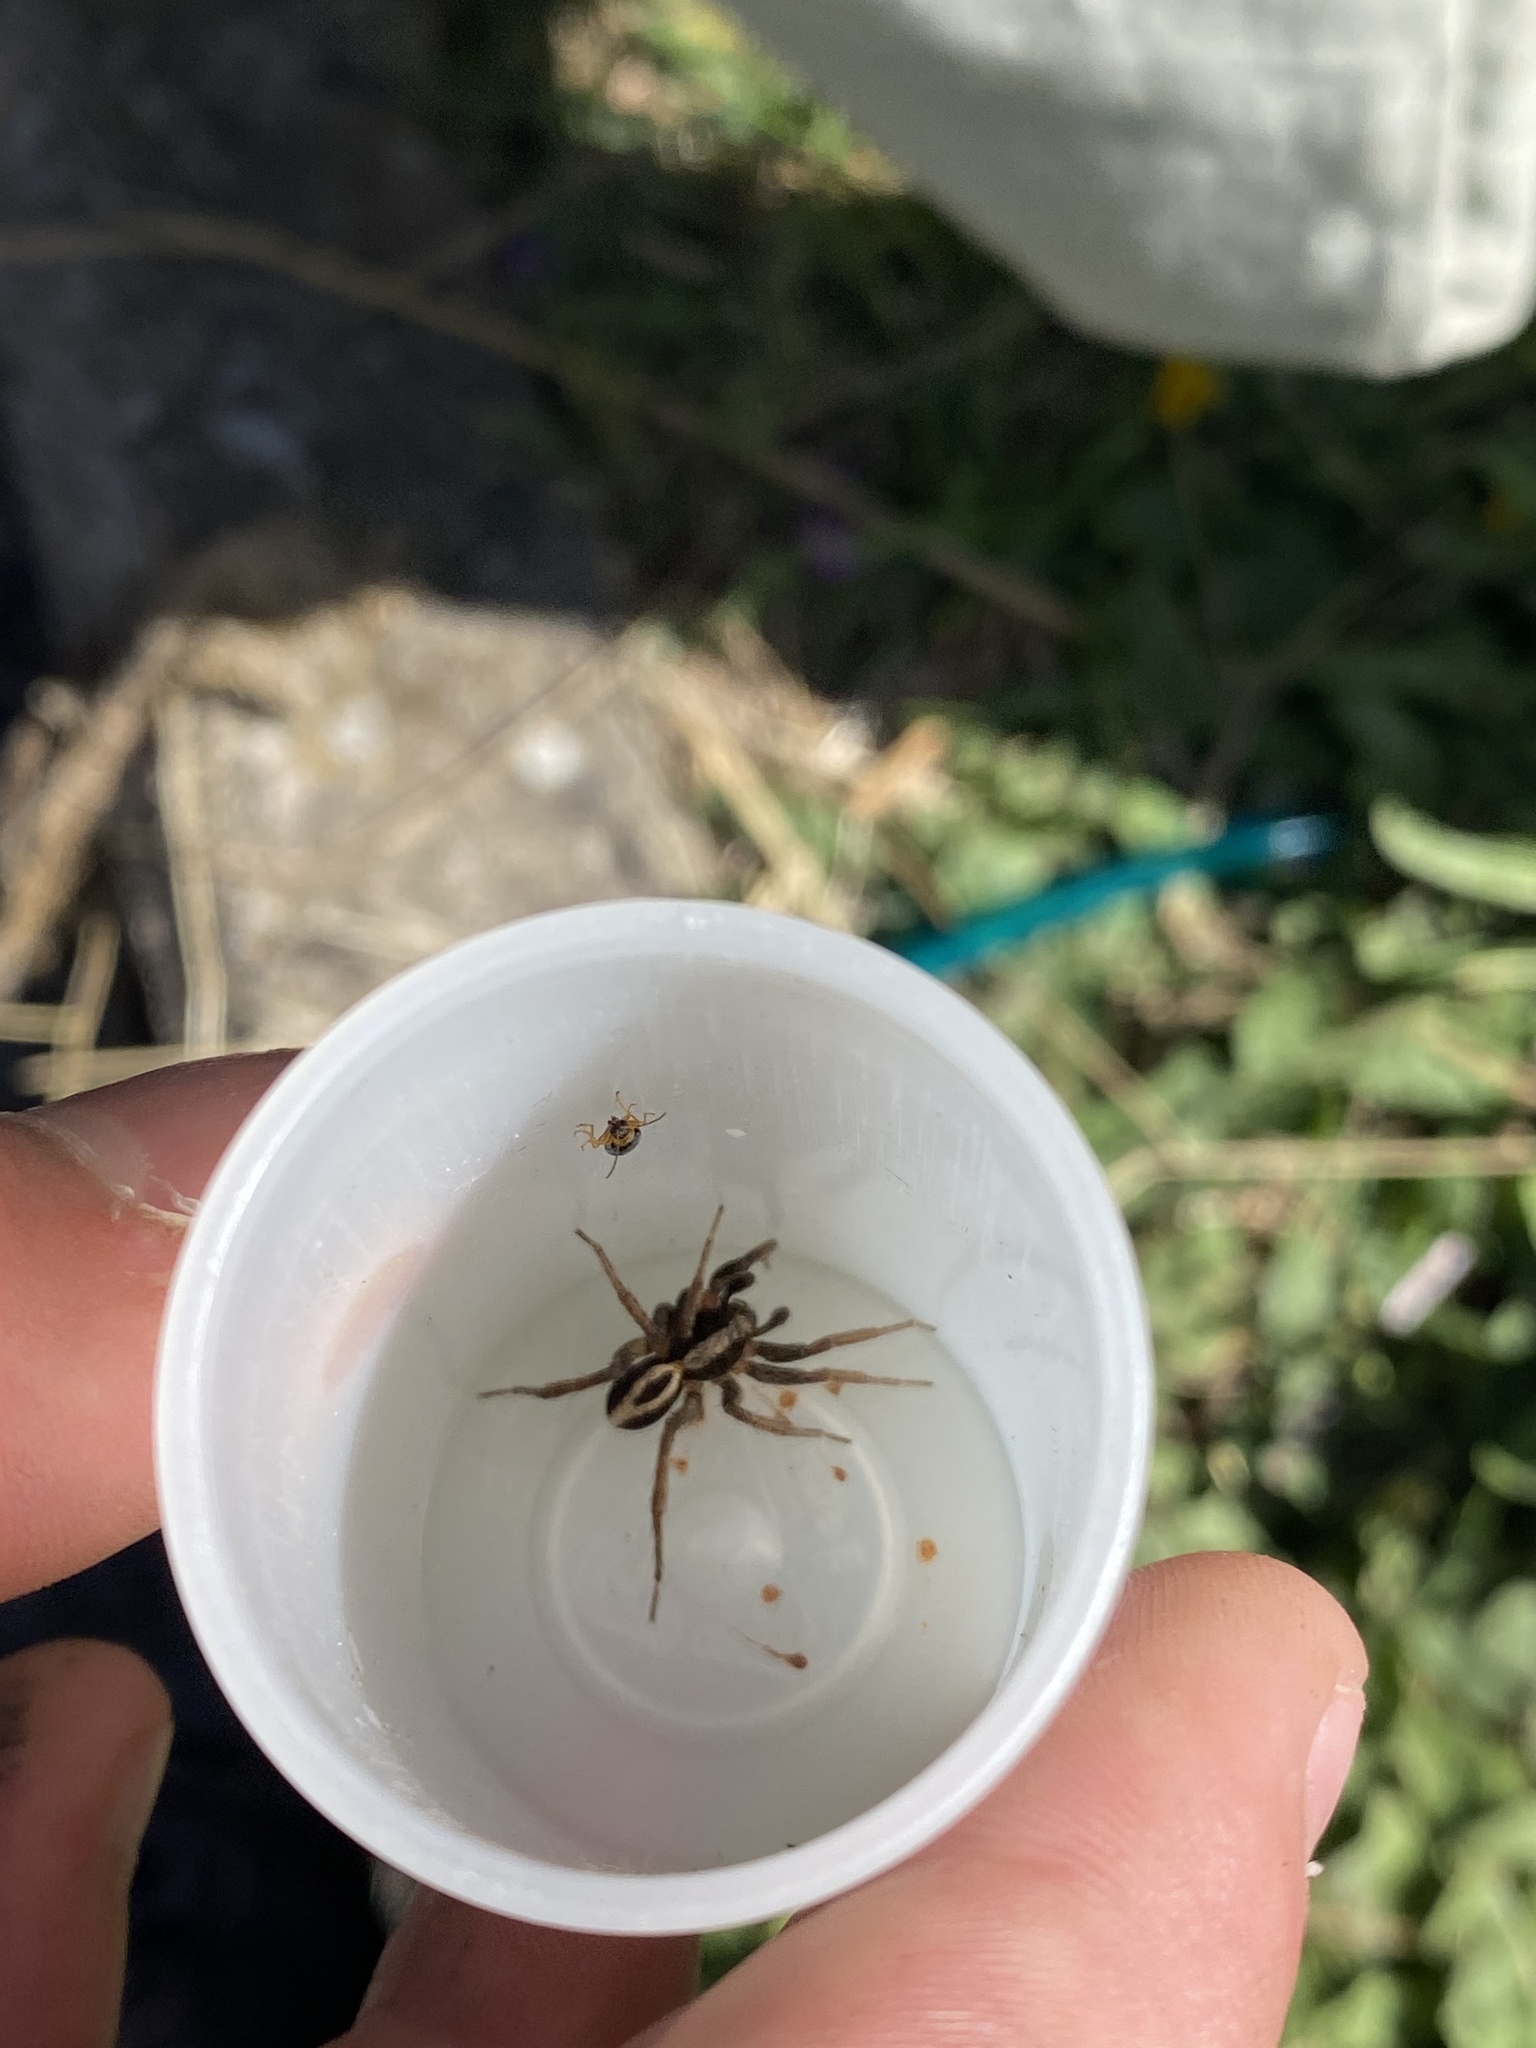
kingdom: Animalia
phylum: Arthropoda
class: Arachnida
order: Araneae
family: Lycosidae
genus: Alopecosa
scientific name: Alopecosa albofasciata
